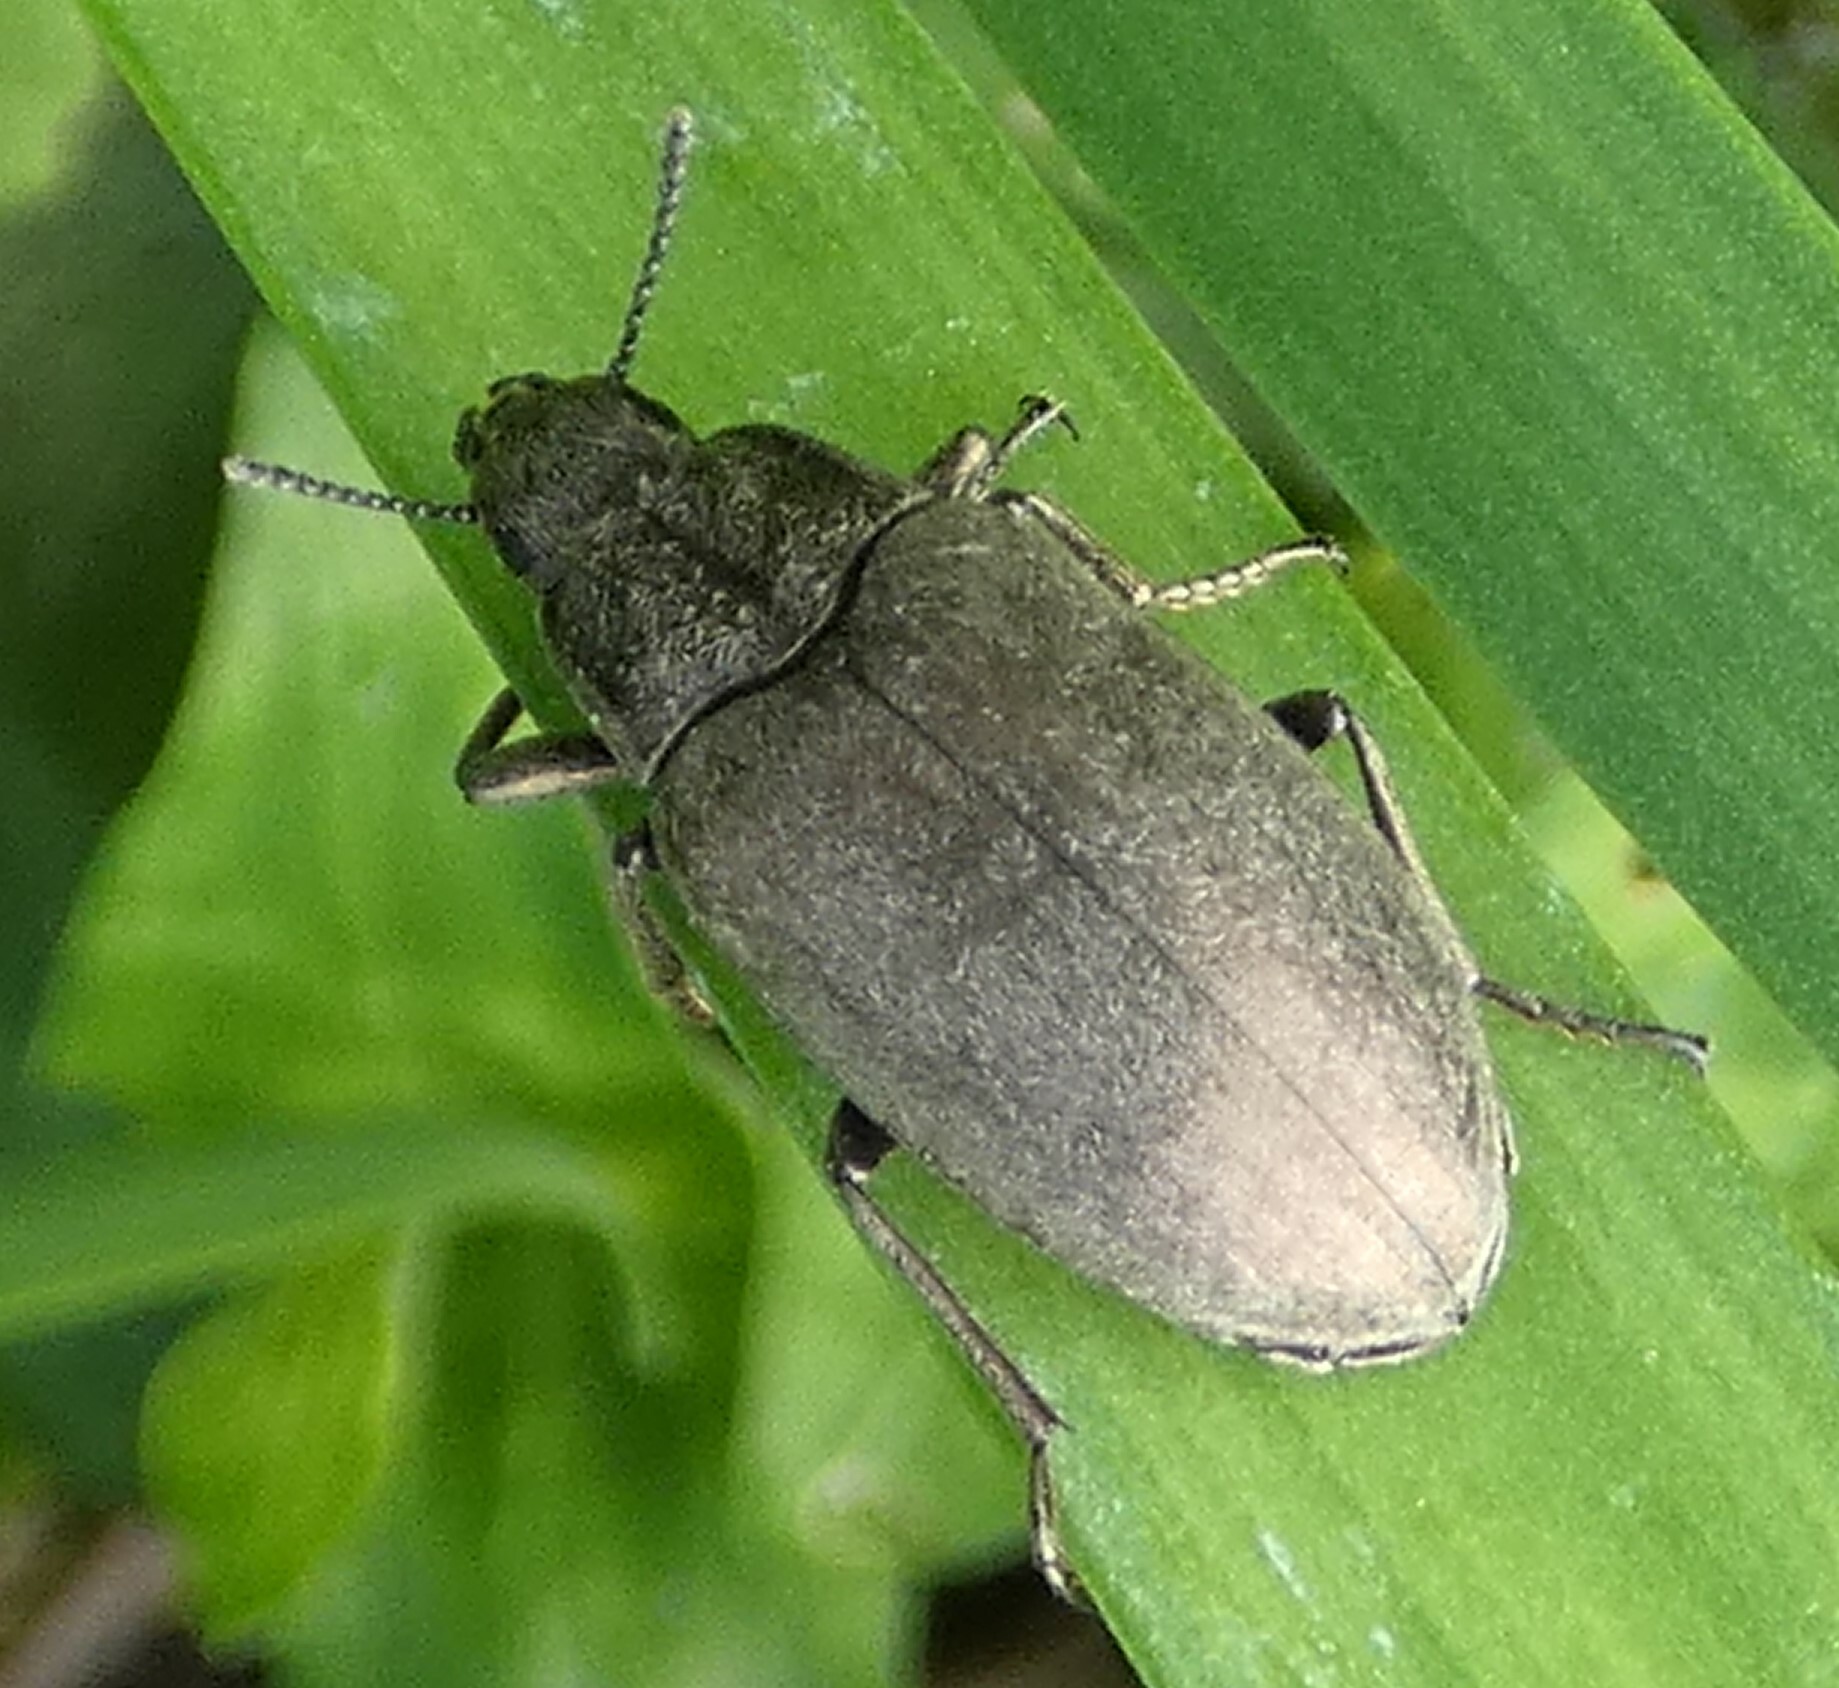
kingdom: Animalia
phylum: Arthropoda
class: Insecta
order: Coleoptera
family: Tenebrionidae
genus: Bothrotes
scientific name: Bothrotes canaliculatus
